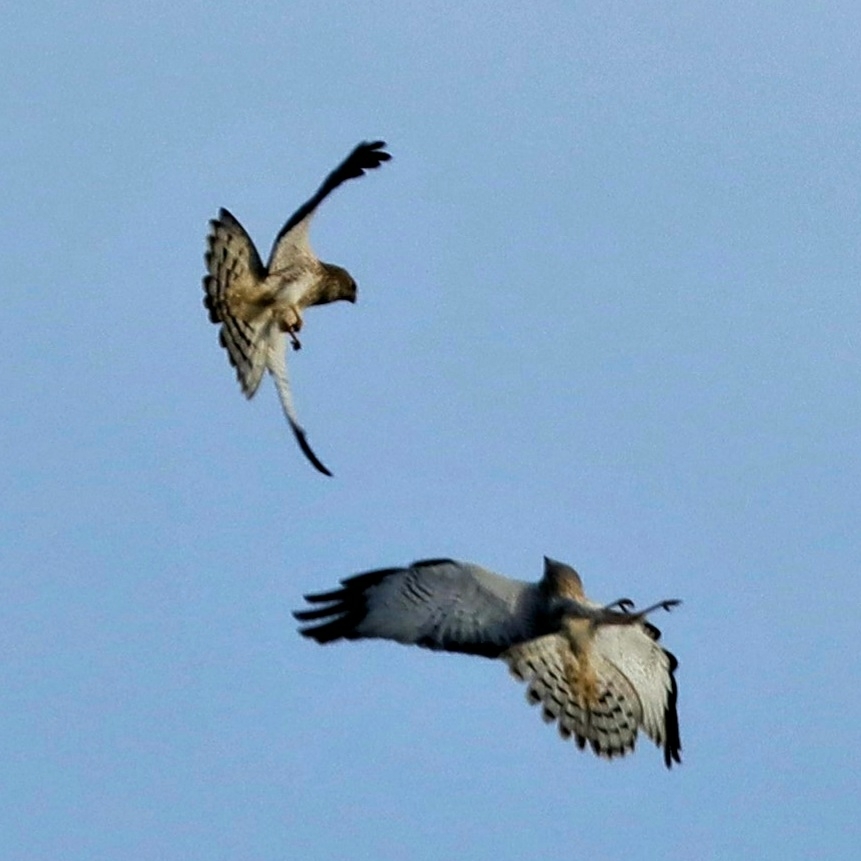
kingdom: Animalia
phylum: Chordata
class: Aves
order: Accipitriformes
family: Accipitridae
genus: Circus
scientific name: Circus cyaneus
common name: Hen harrier
